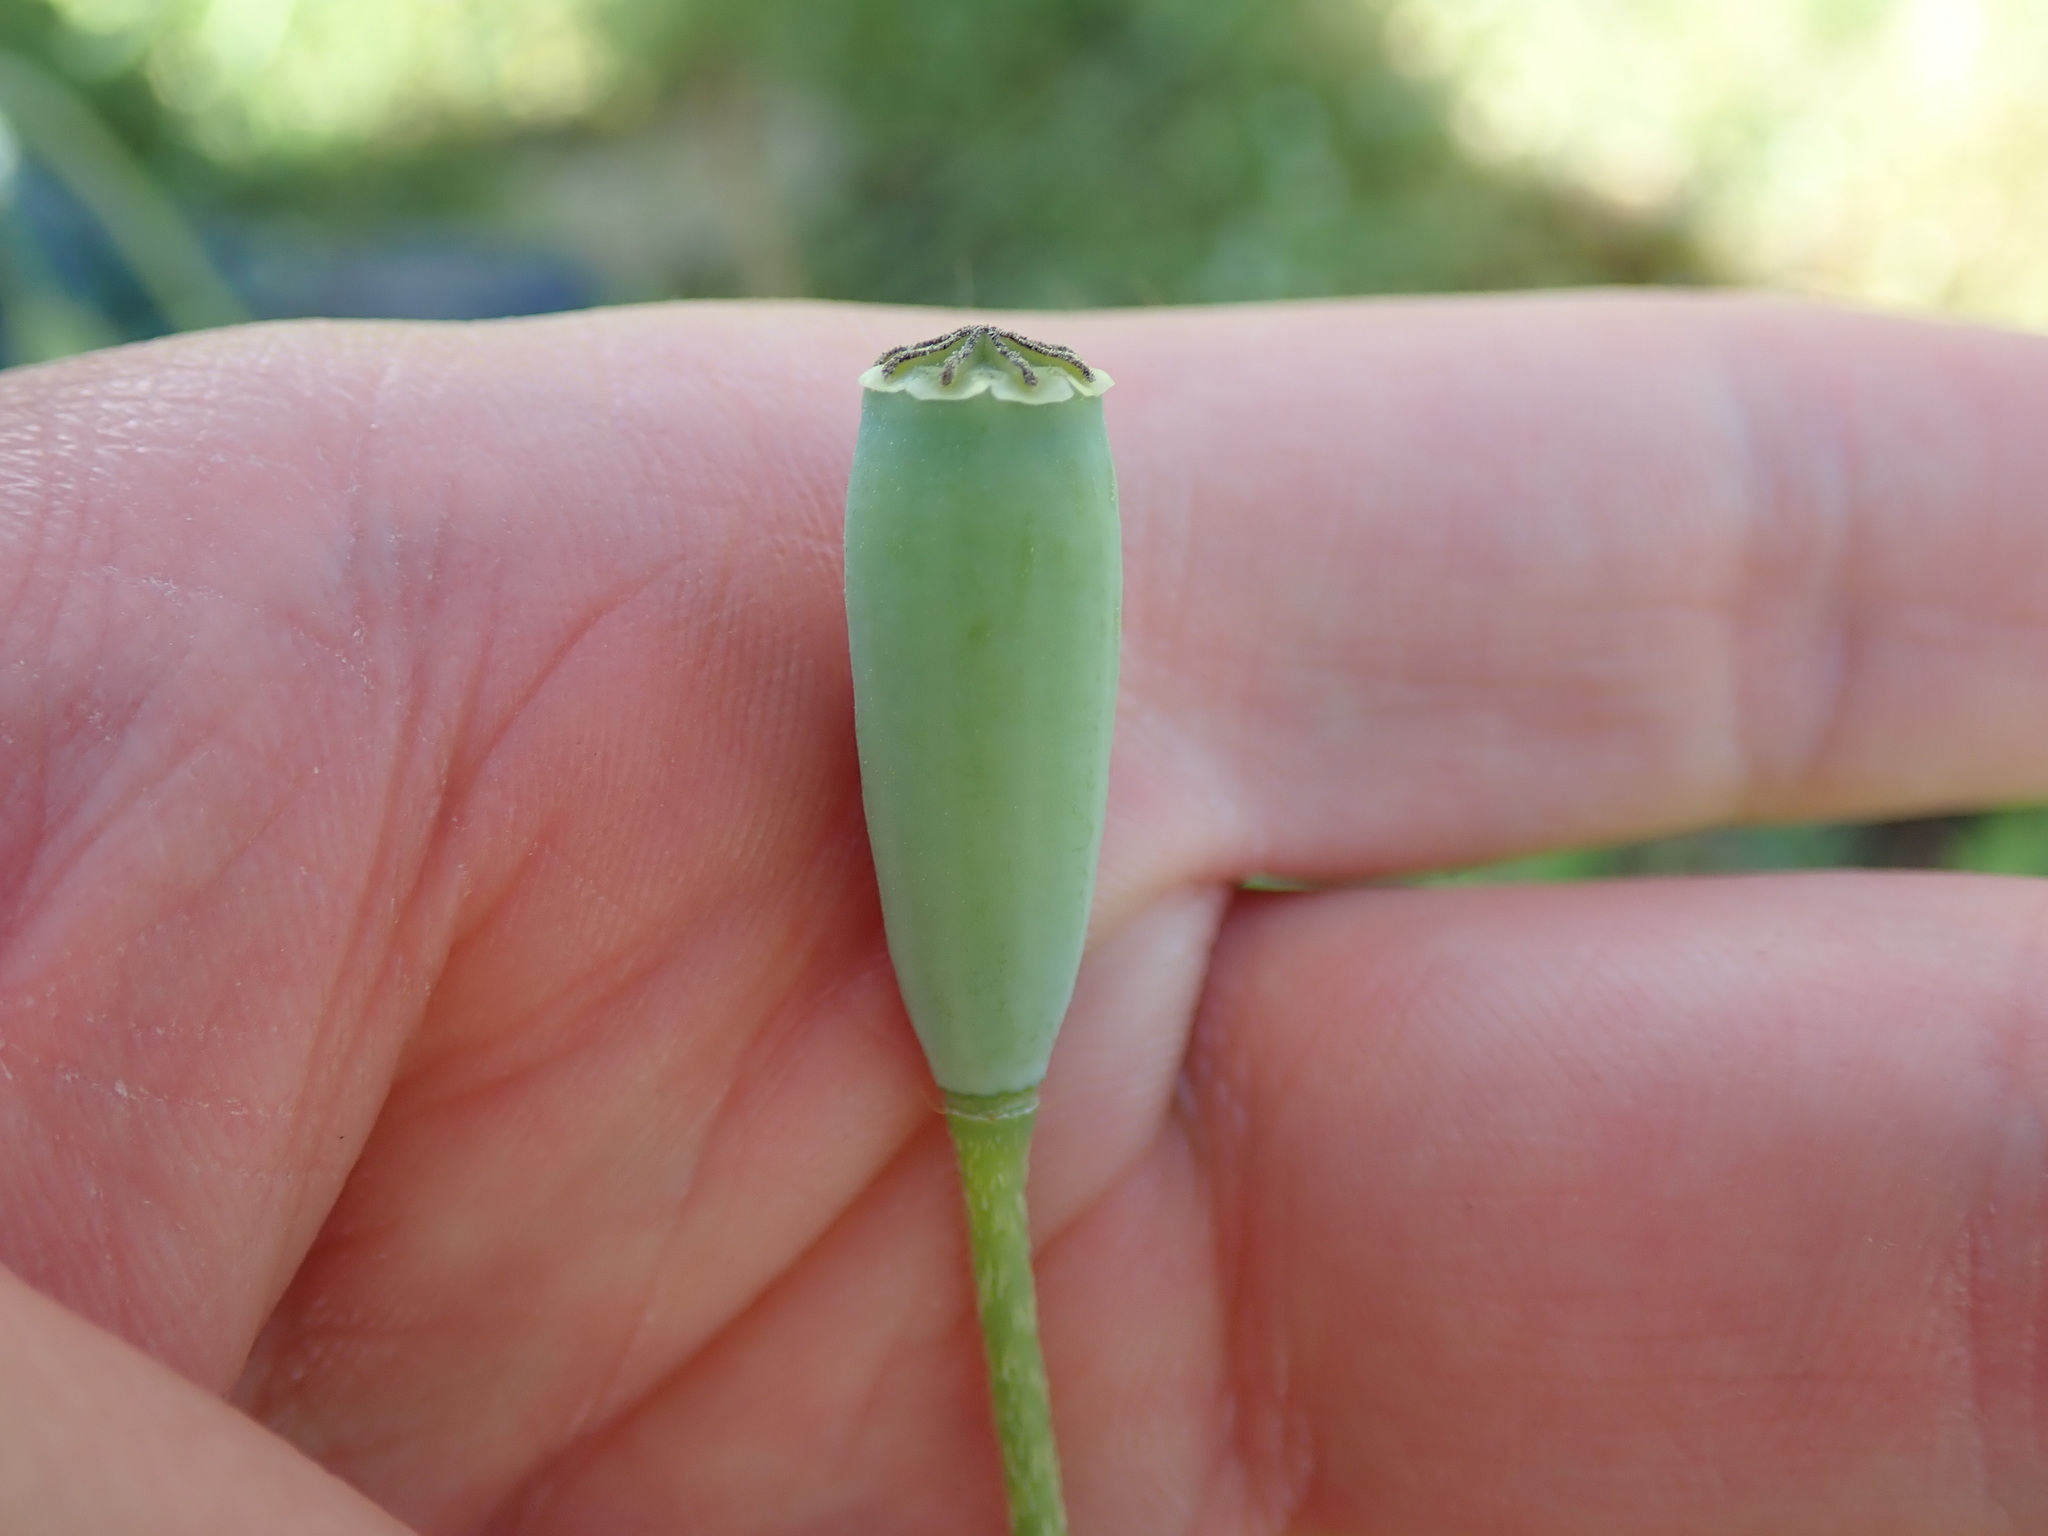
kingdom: Plantae
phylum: Tracheophyta
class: Magnoliopsida
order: Ranunculales
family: Papaveraceae
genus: Papaver
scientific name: Papaver dubium
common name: Long-headed poppy
